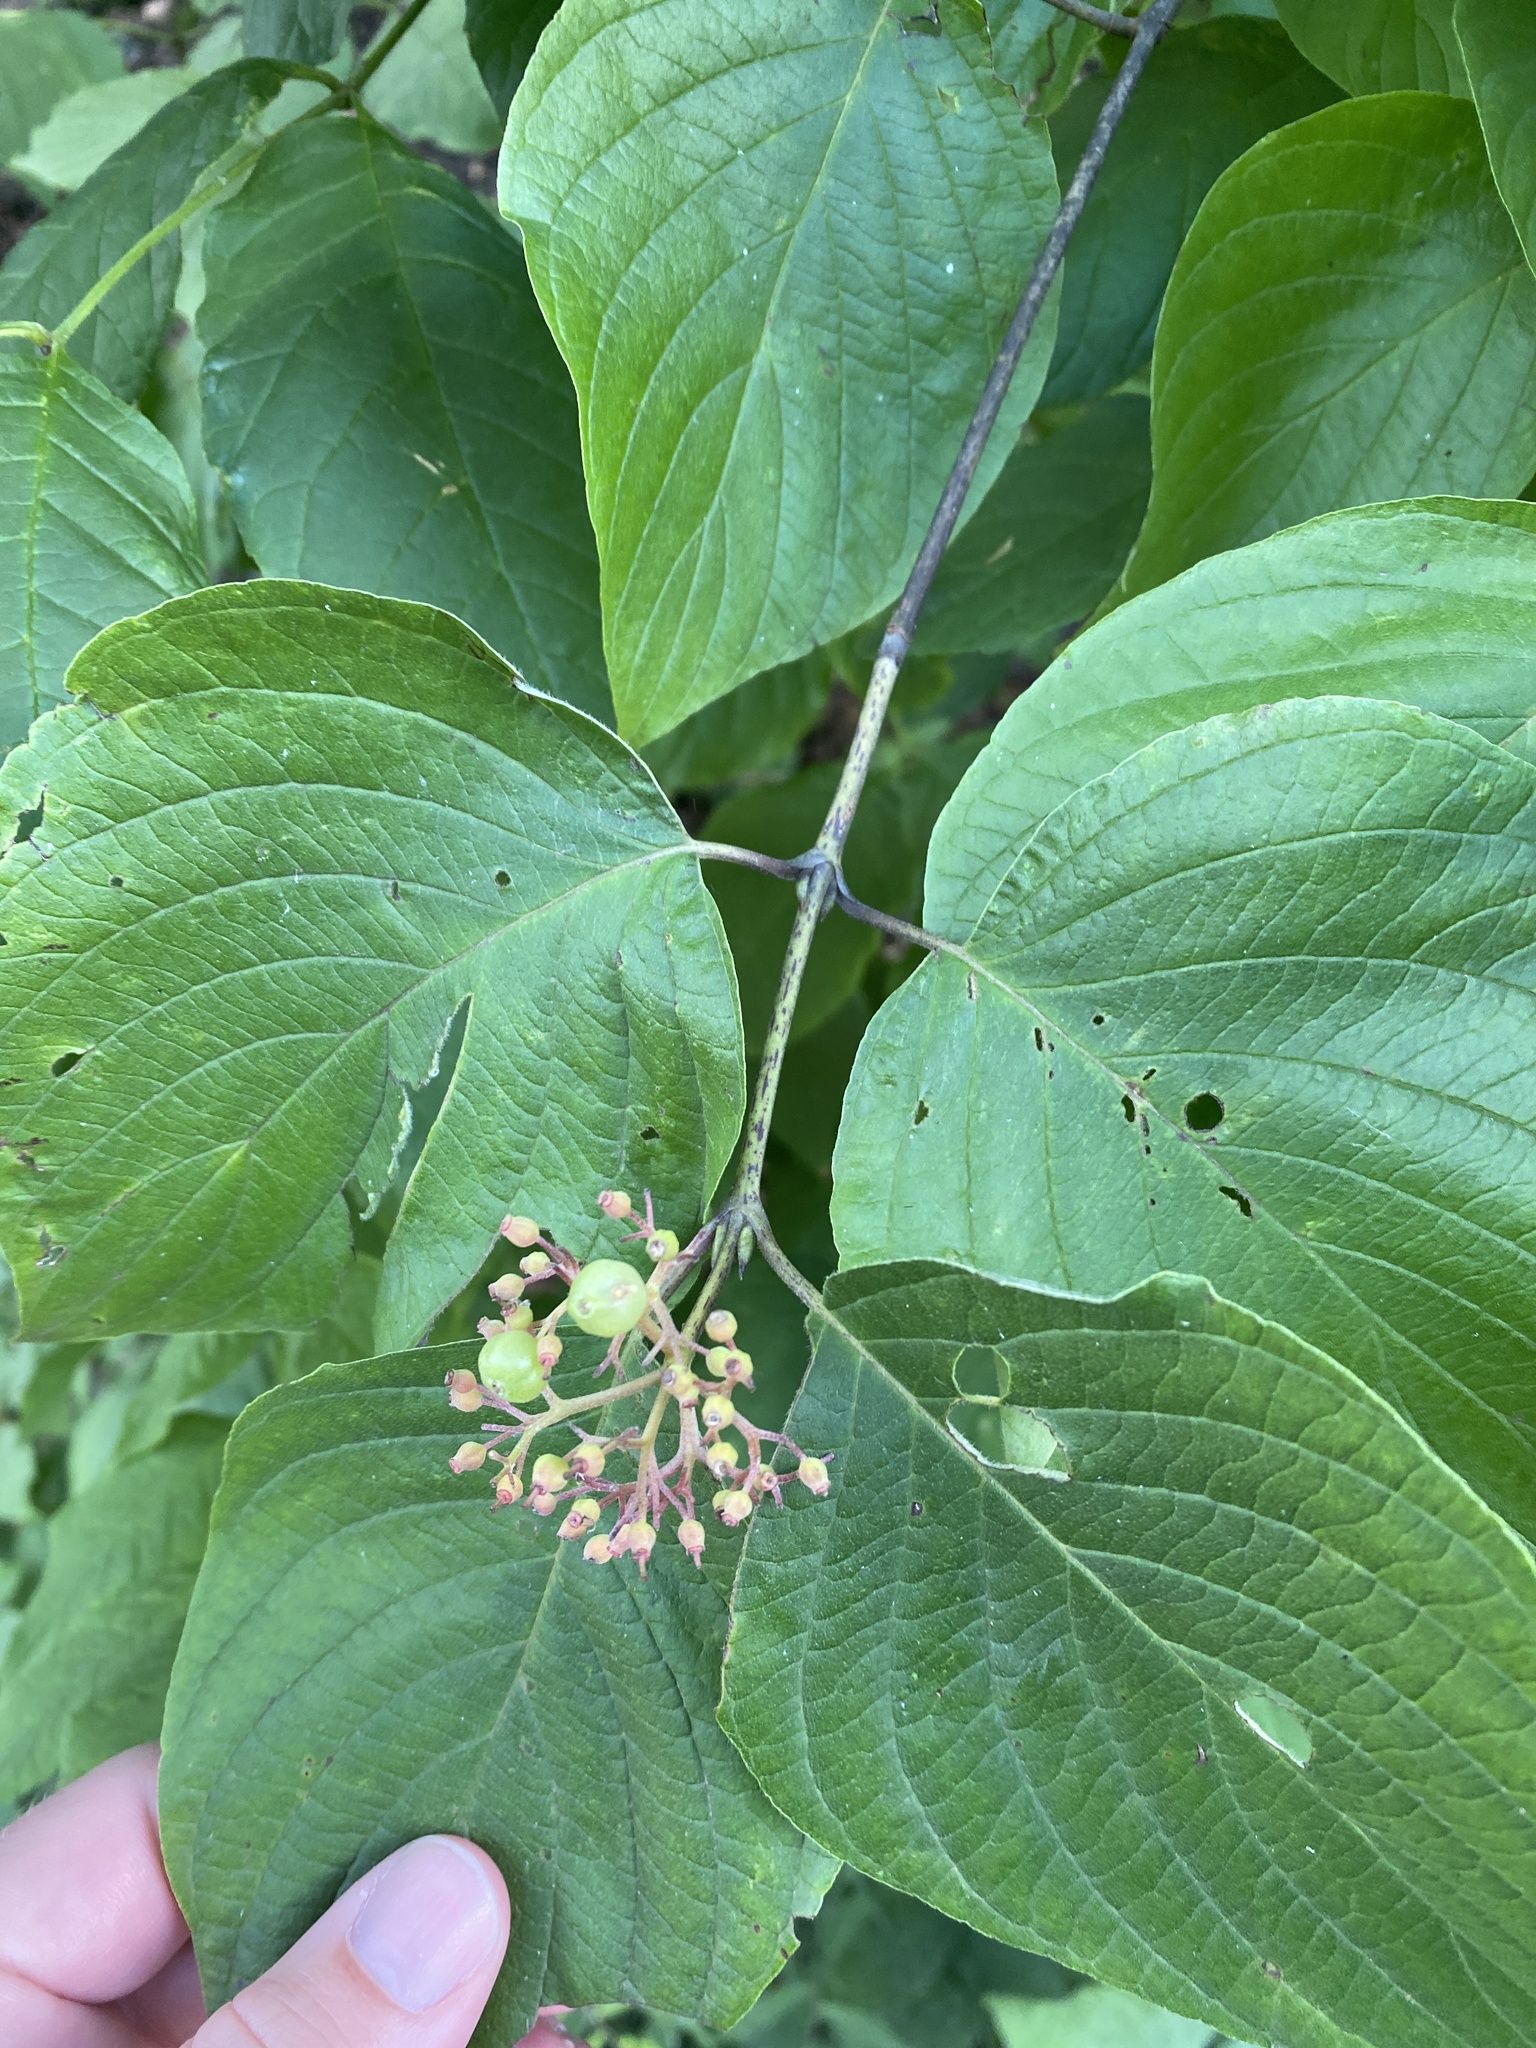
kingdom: Plantae
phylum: Tracheophyta
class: Magnoliopsida
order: Cornales
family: Cornaceae
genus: Cornus
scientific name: Cornus rugosa
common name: Round-leaf dogwood
